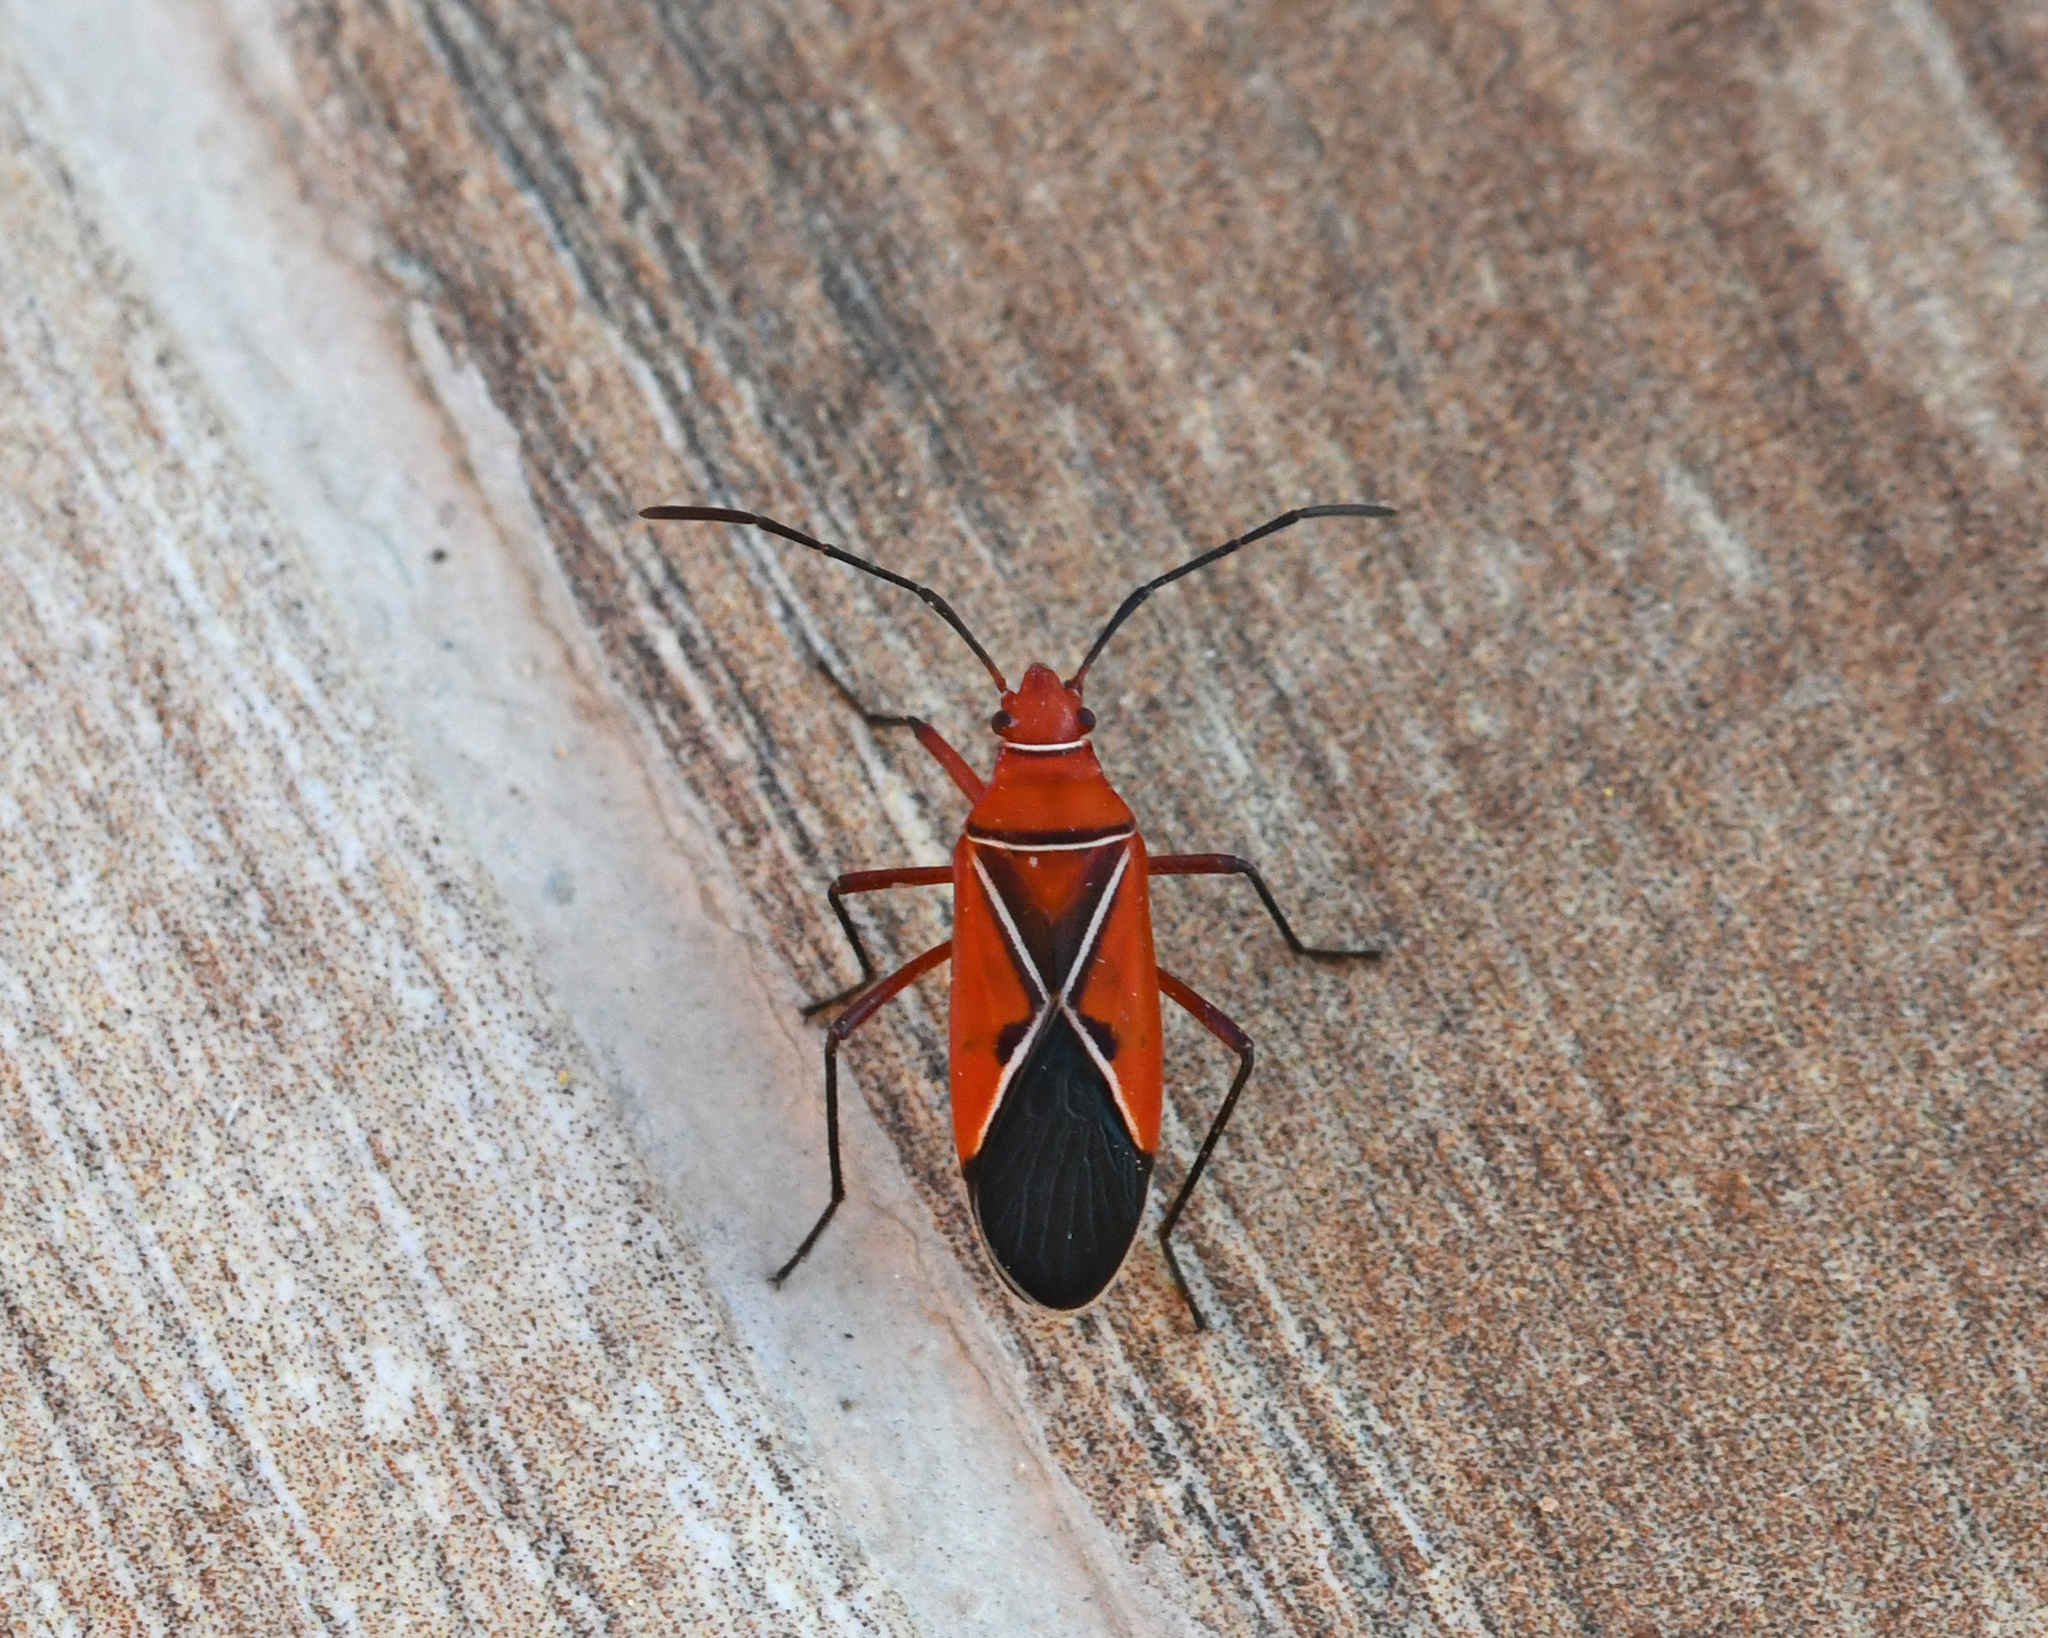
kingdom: Animalia
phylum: Arthropoda
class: Insecta
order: Hemiptera
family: Pyrrhocoridae
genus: Dysdercus
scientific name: Dysdercus andreae
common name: St. andrew's cotton stainer
